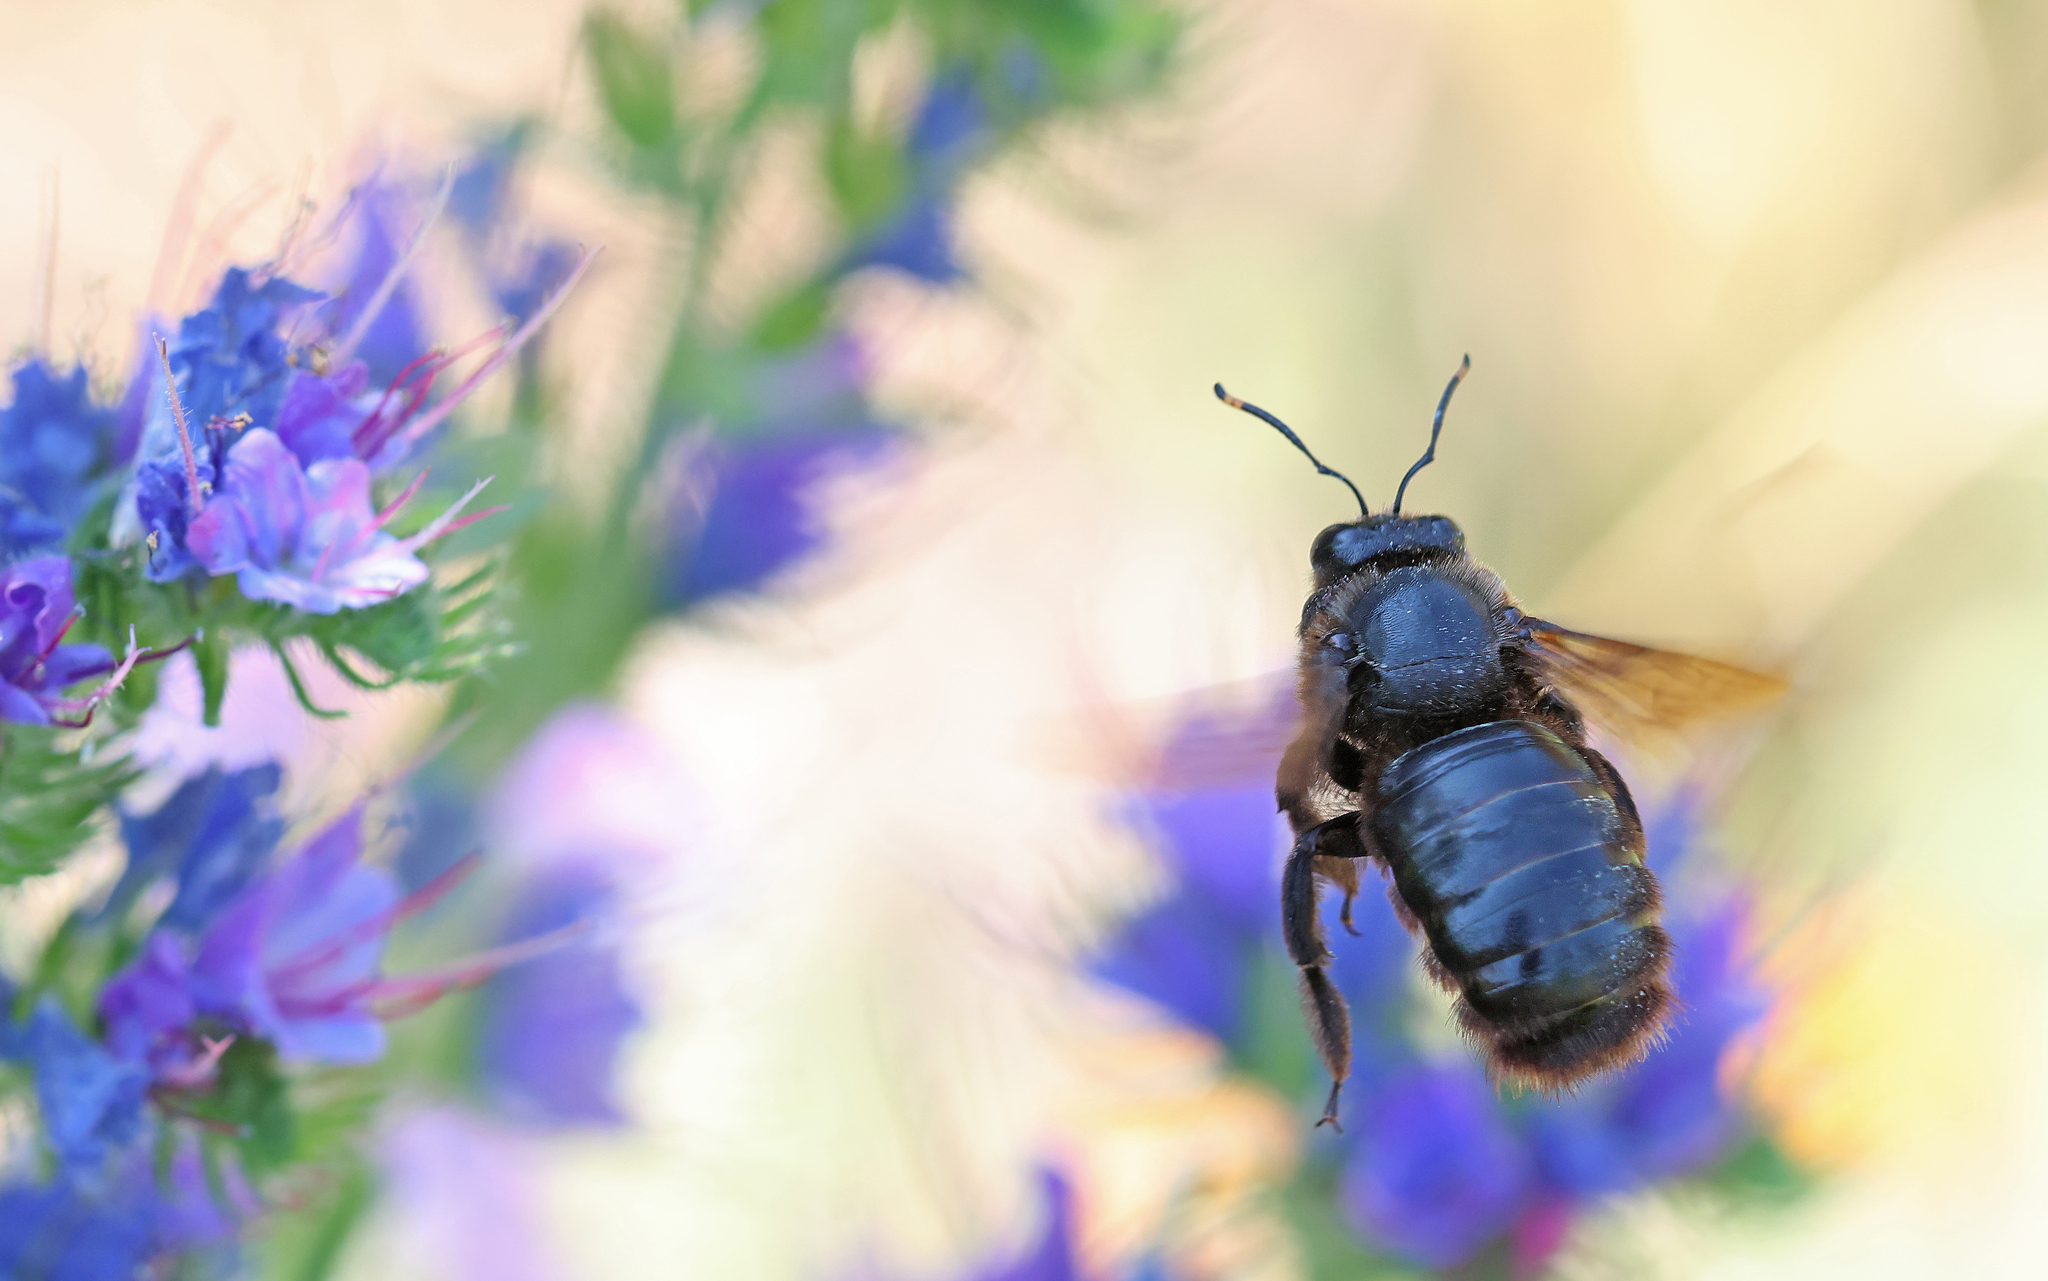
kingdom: Animalia
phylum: Arthropoda
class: Insecta
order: Hymenoptera
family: Apidae
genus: Xylocopa
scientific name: Xylocopa violacea
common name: Violet carpenter bee
